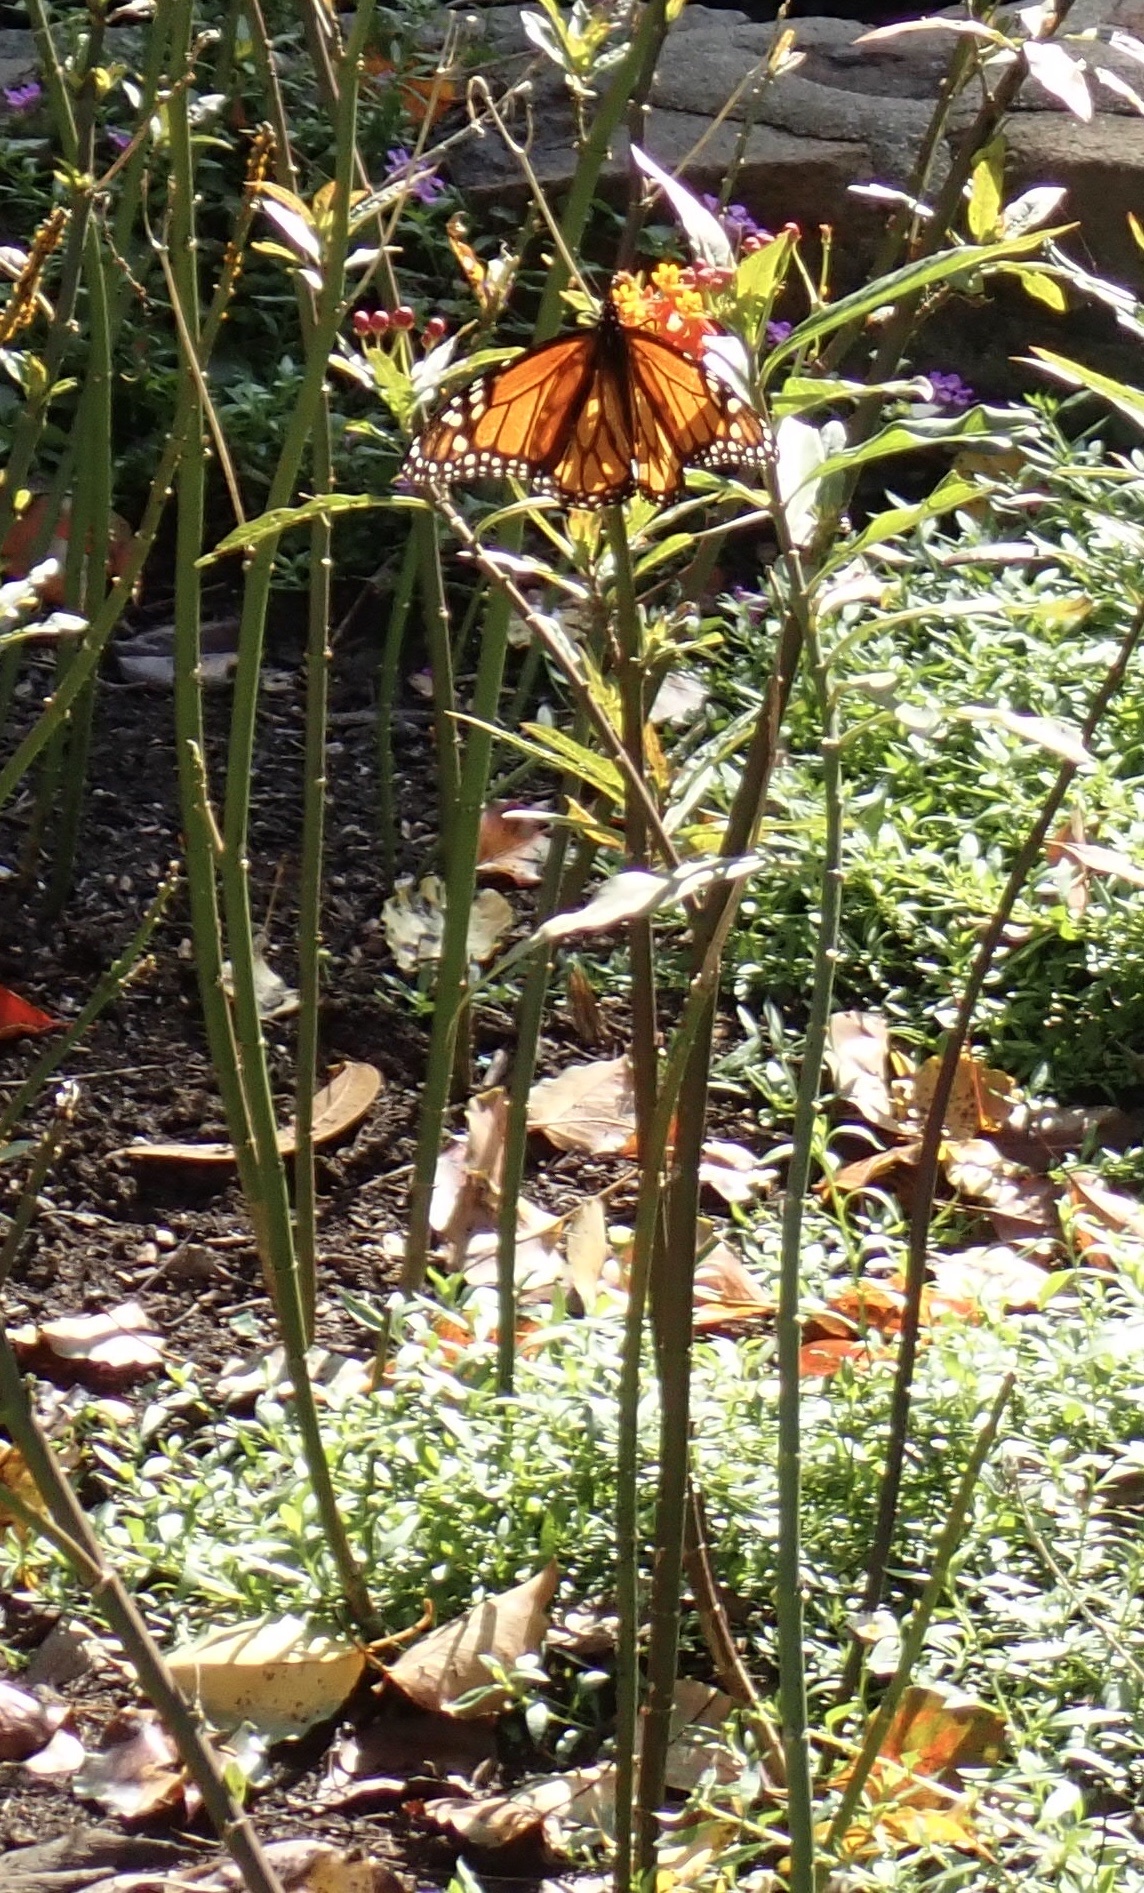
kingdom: Animalia
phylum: Arthropoda
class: Insecta
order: Lepidoptera
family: Nymphalidae
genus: Danaus
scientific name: Danaus plexippus
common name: Monarch
